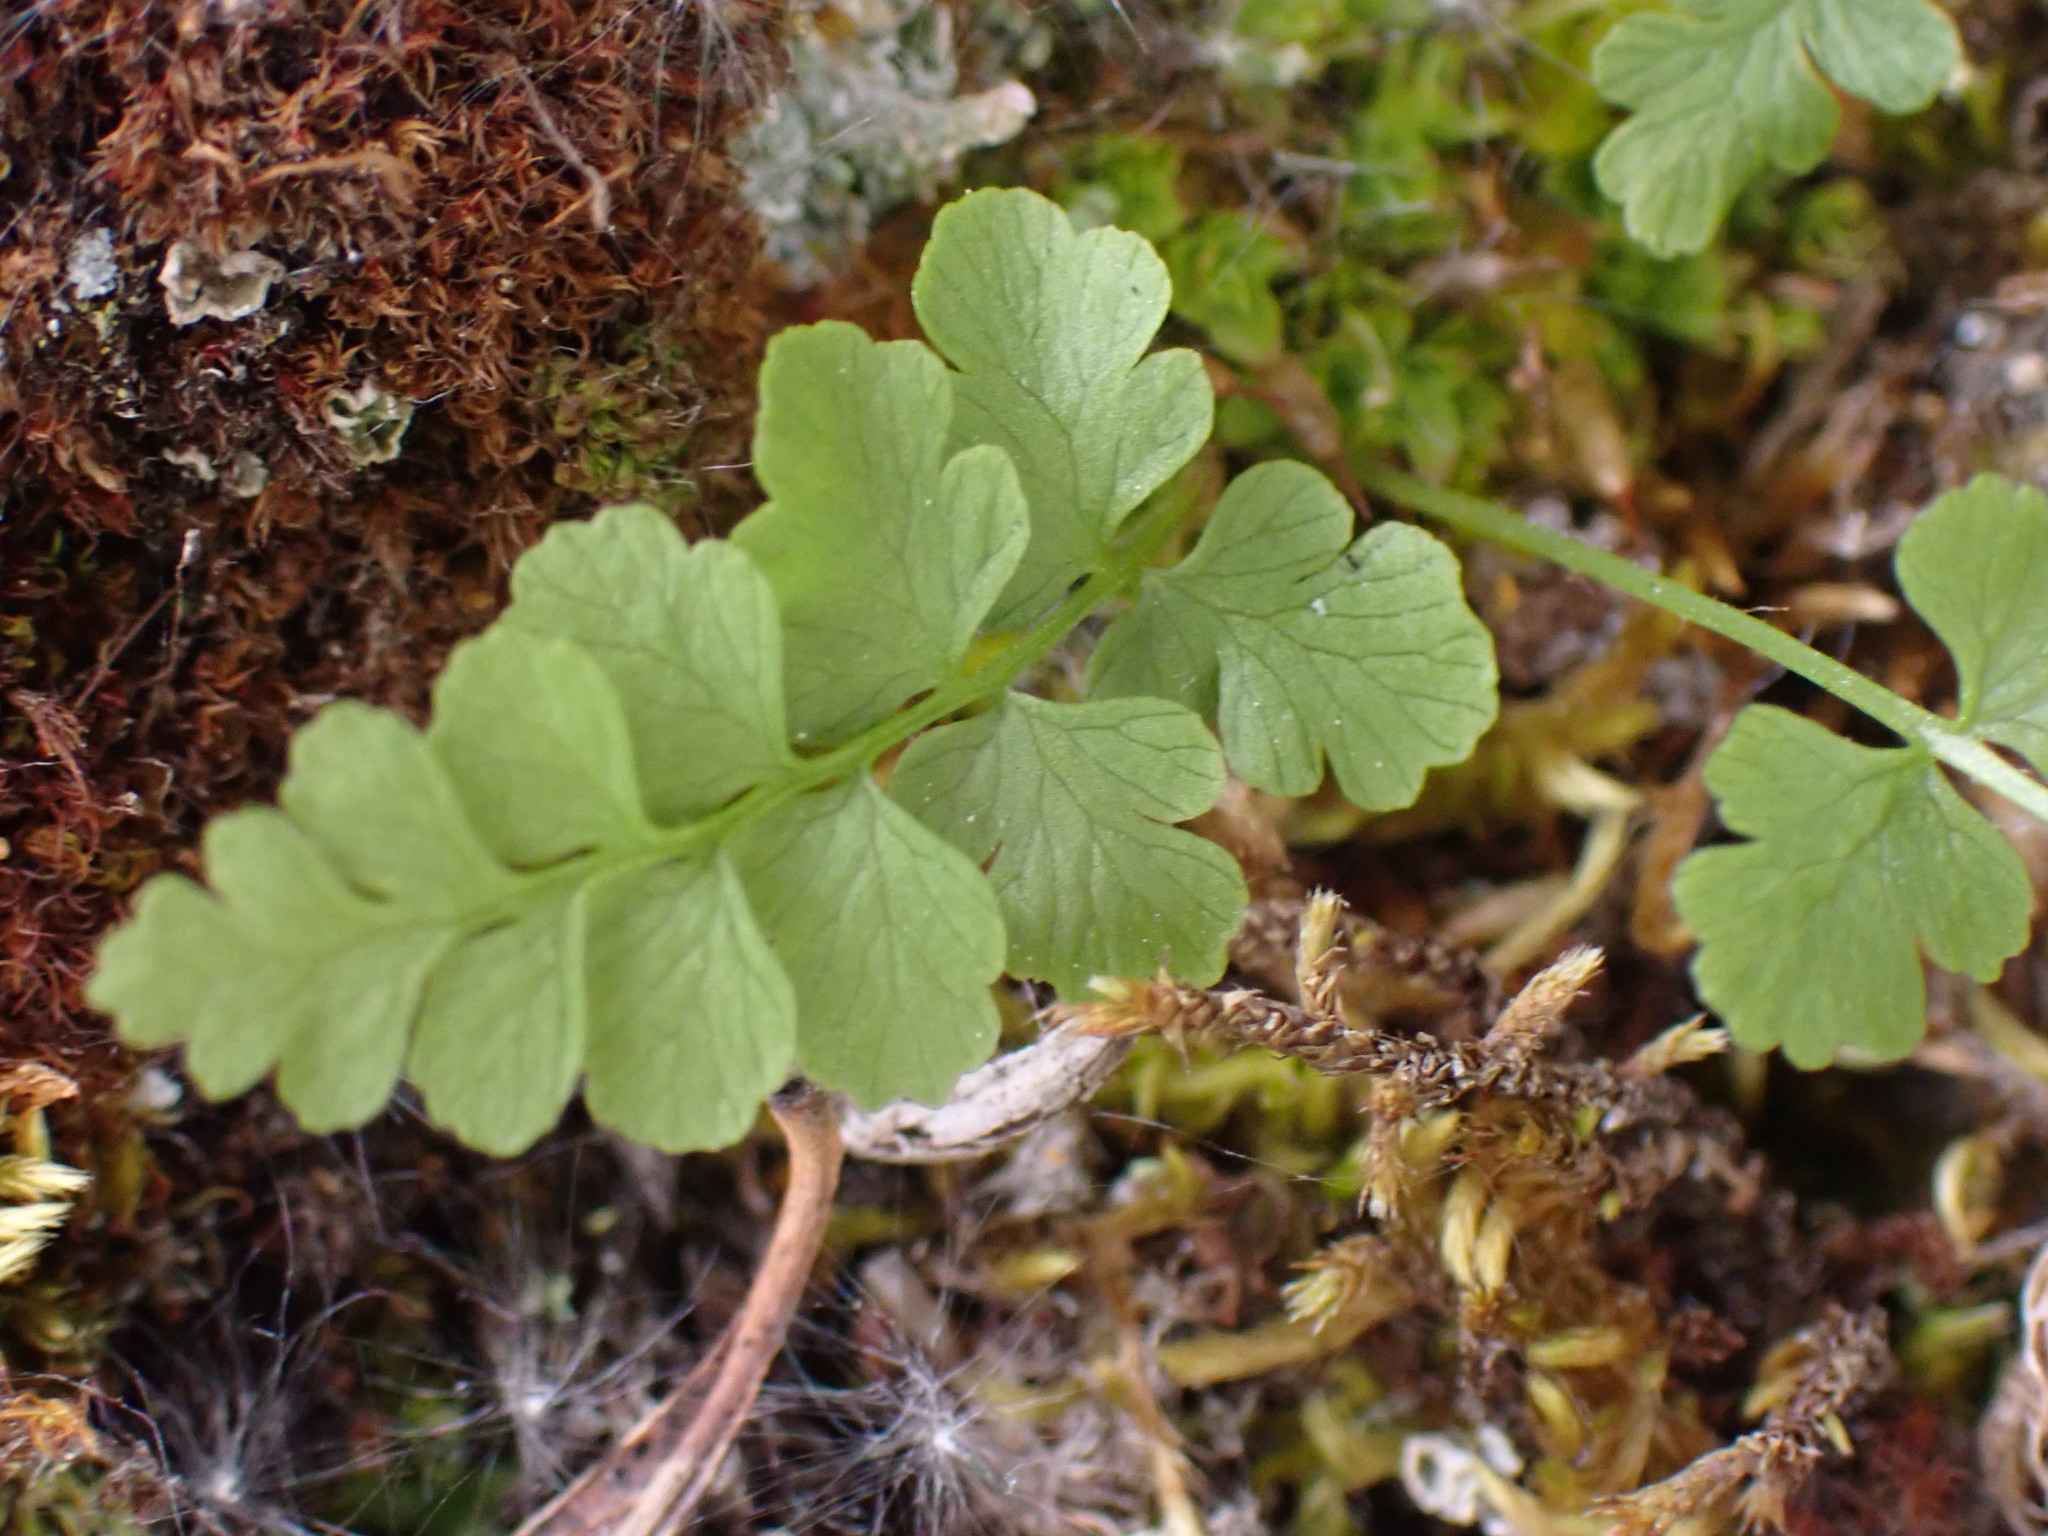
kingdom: Plantae
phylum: Tracheophyta
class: Polypodiopsida
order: Polypodiales
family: Cystopteridaceae
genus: Cystopteris
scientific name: Cystopteris fragilis
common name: Brittle bladder fern
